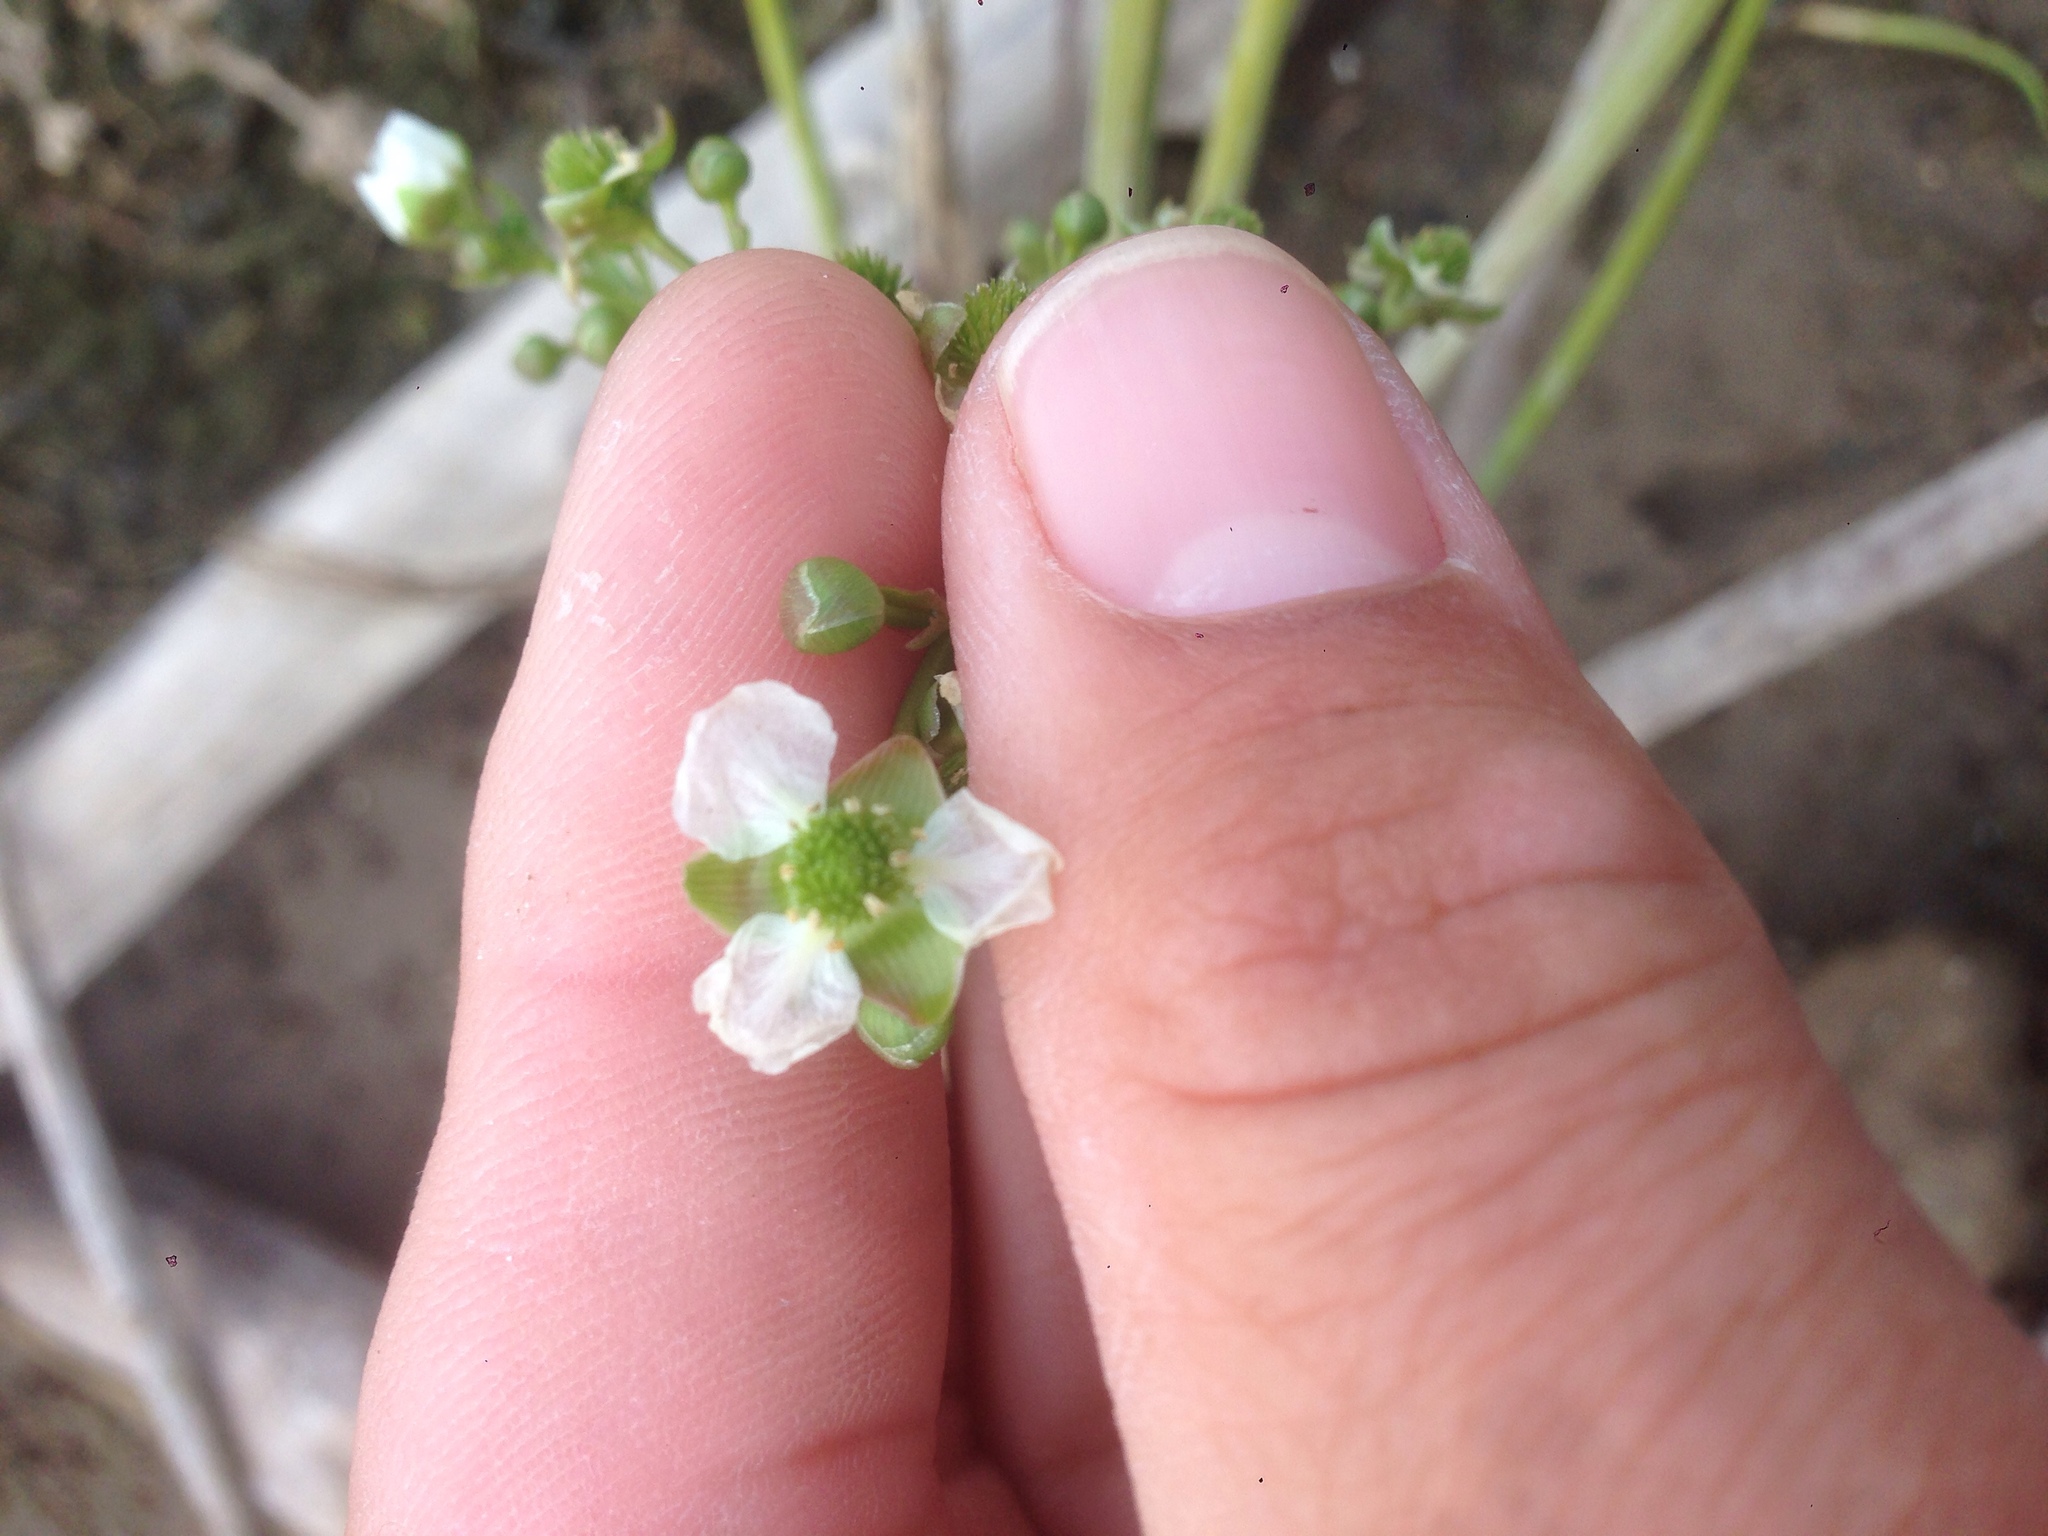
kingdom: Plantae
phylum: Tracheophyta
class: Liliopsida
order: Alismatales
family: Alismataceae
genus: Echinodorus
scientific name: Echinodorus berteroi
